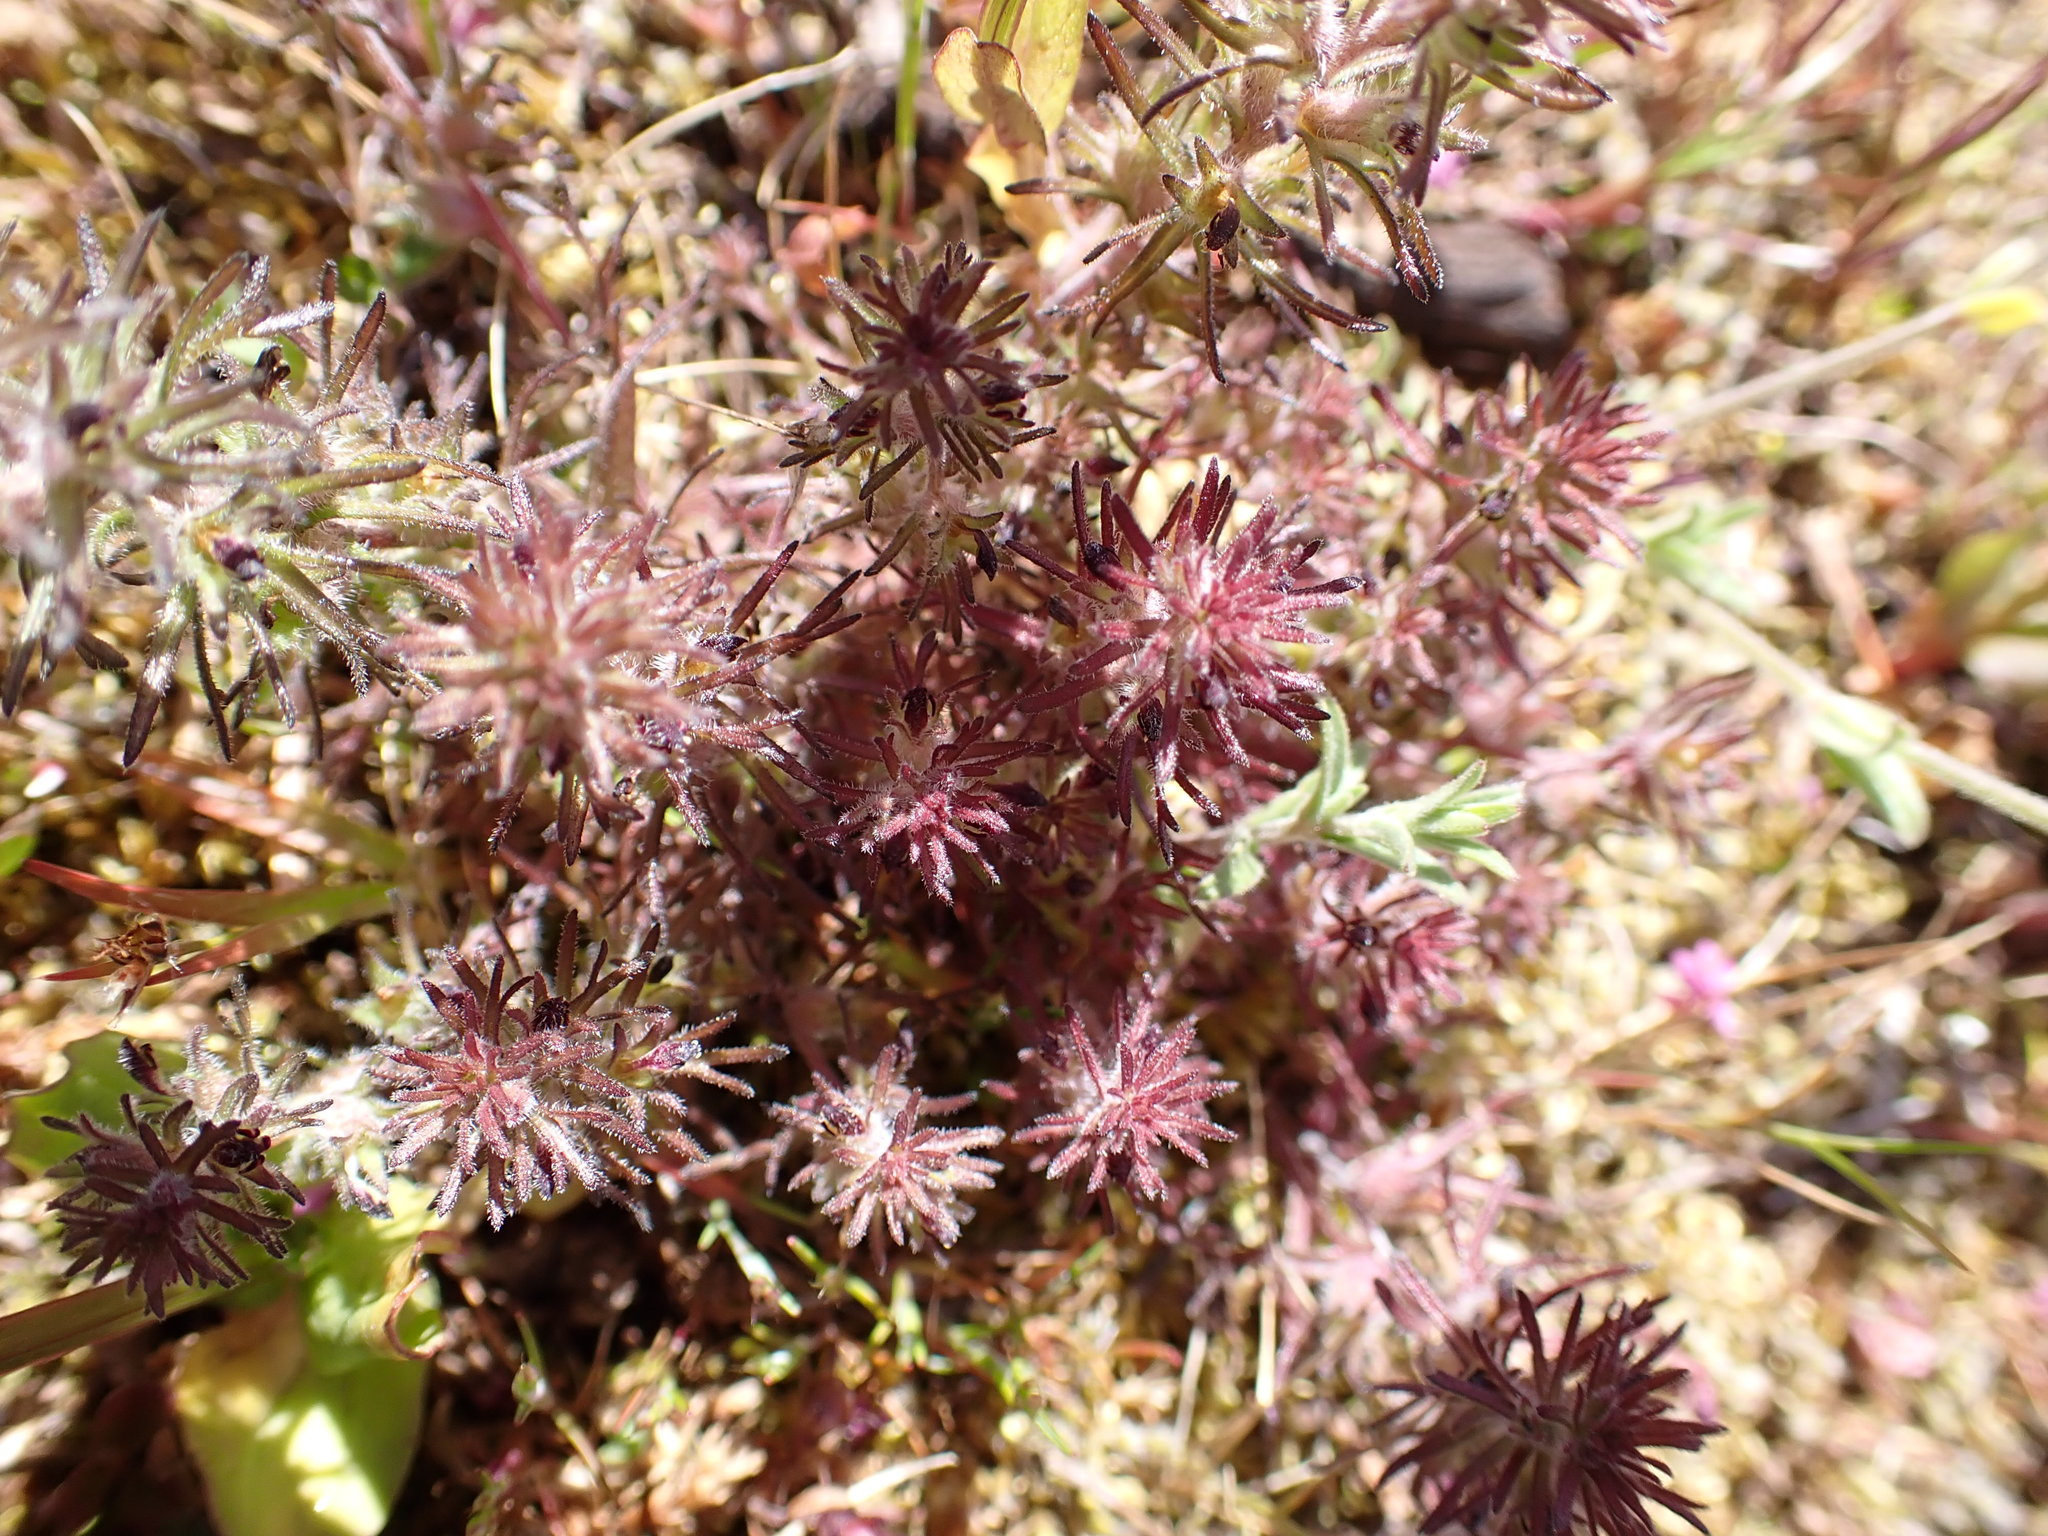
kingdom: Plantae
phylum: Tracheophyta
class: Magnoliopsida
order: Lamiales
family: Orobanchaceae
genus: Triphysaria
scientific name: Triphysaria pusilla
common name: Dwarf false owl-clover
